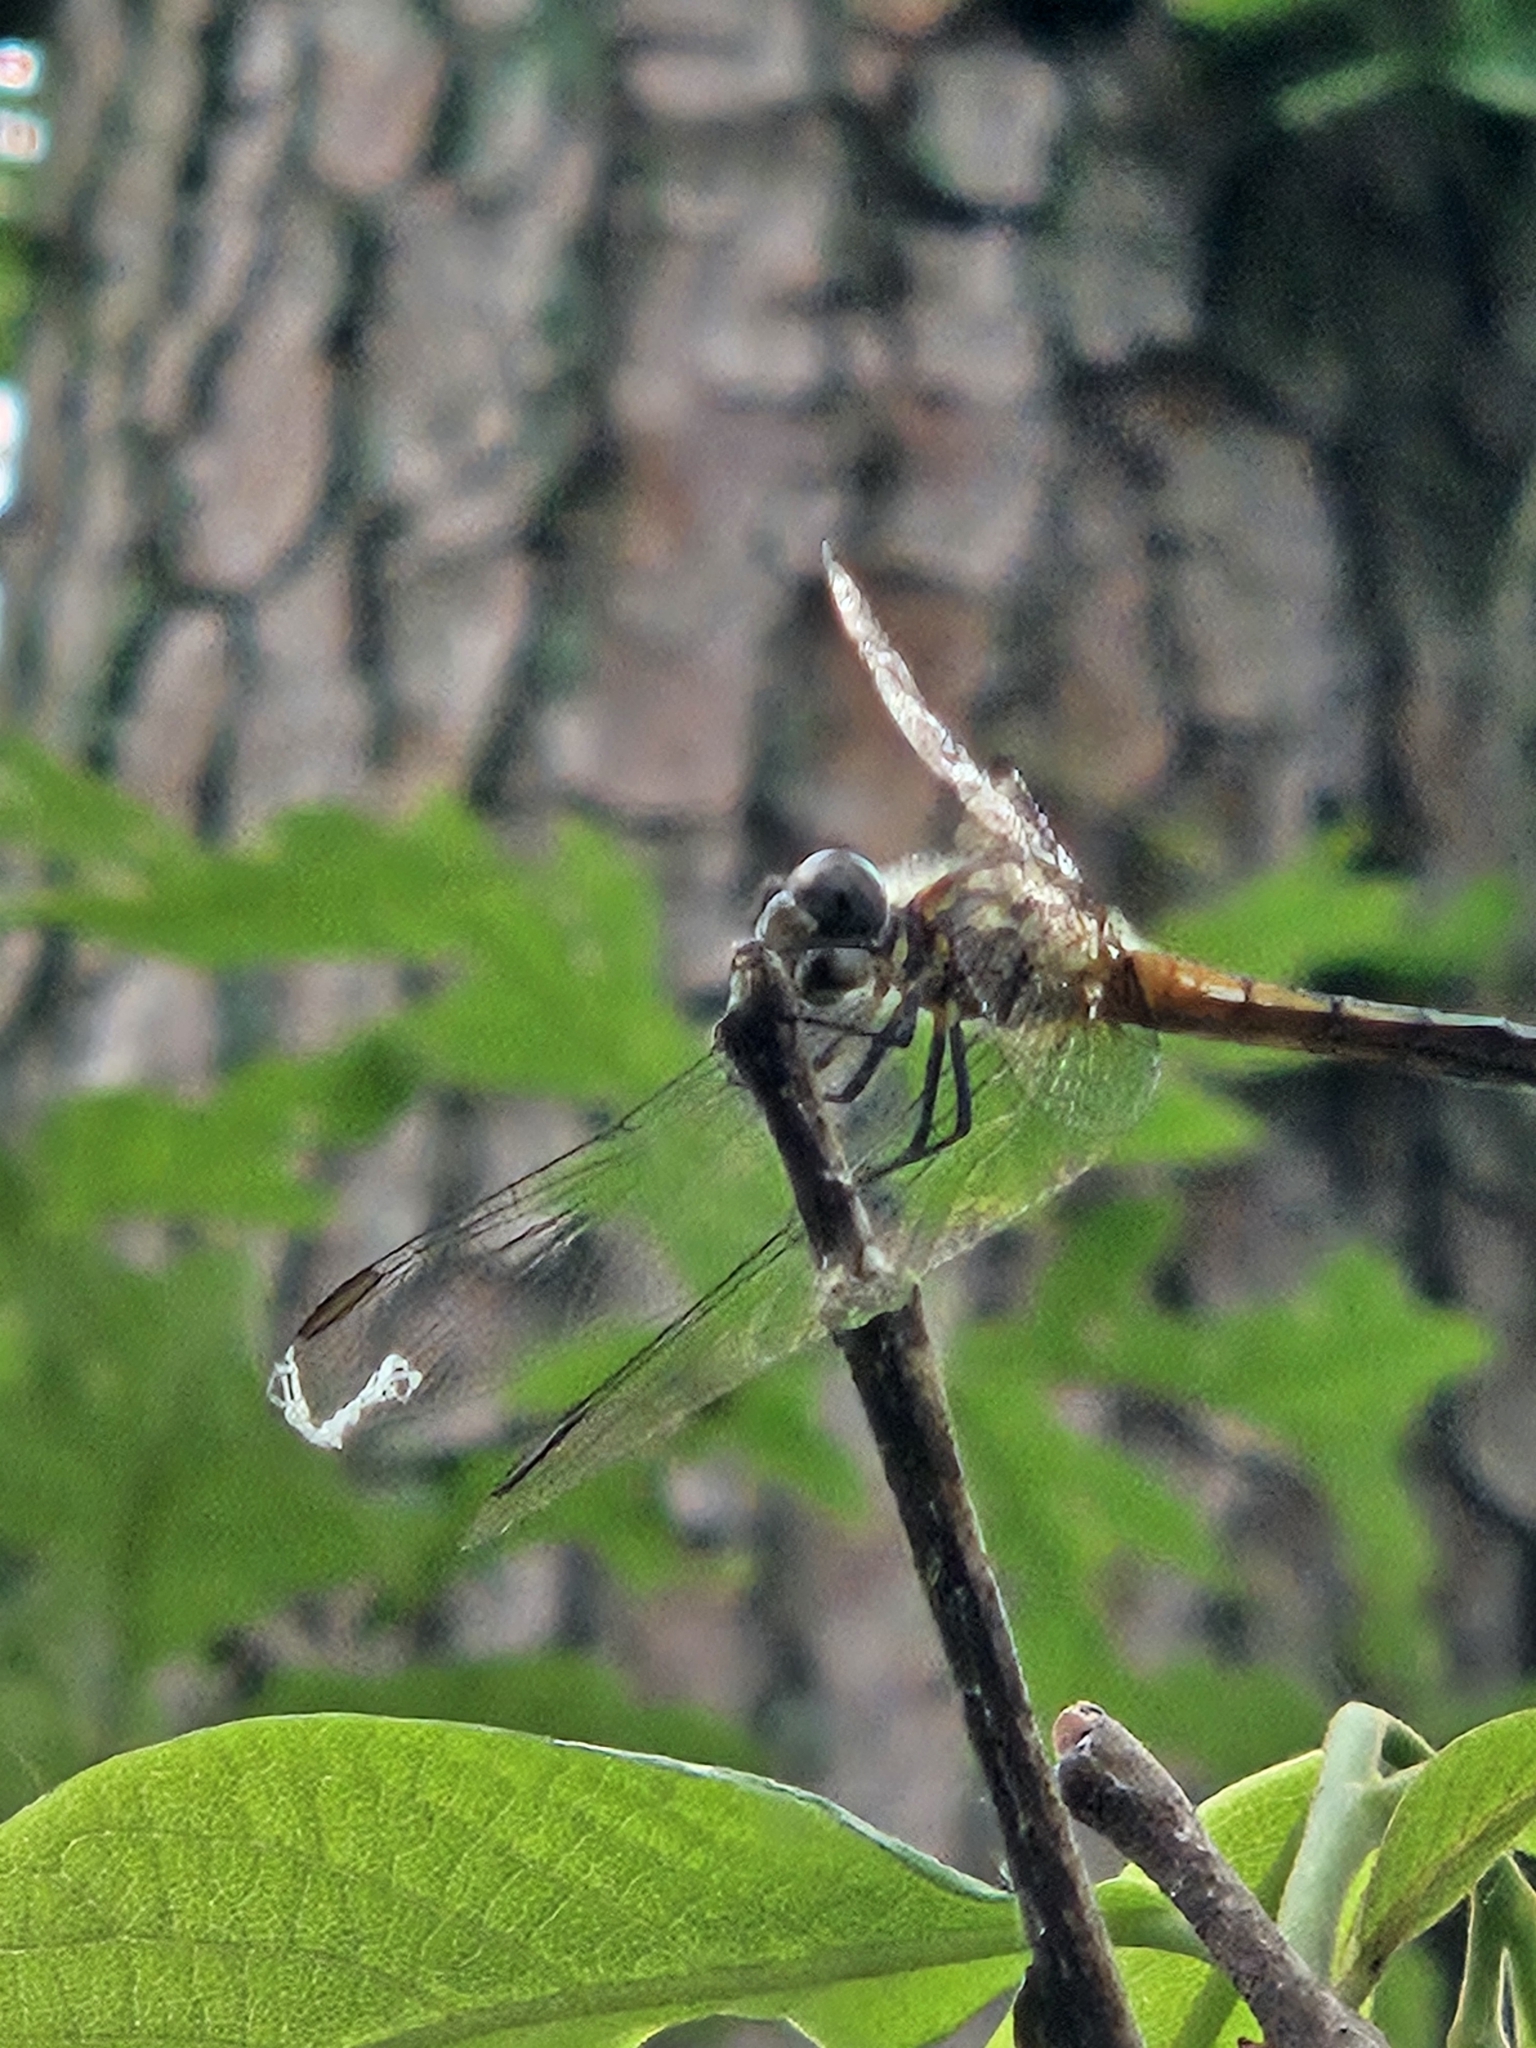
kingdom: Animalia
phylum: Arthropoda
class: Insecta
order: Odonata
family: Libellulidae
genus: Pachydiplax
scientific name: Pachydiplax longipennis
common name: Blue dasher
